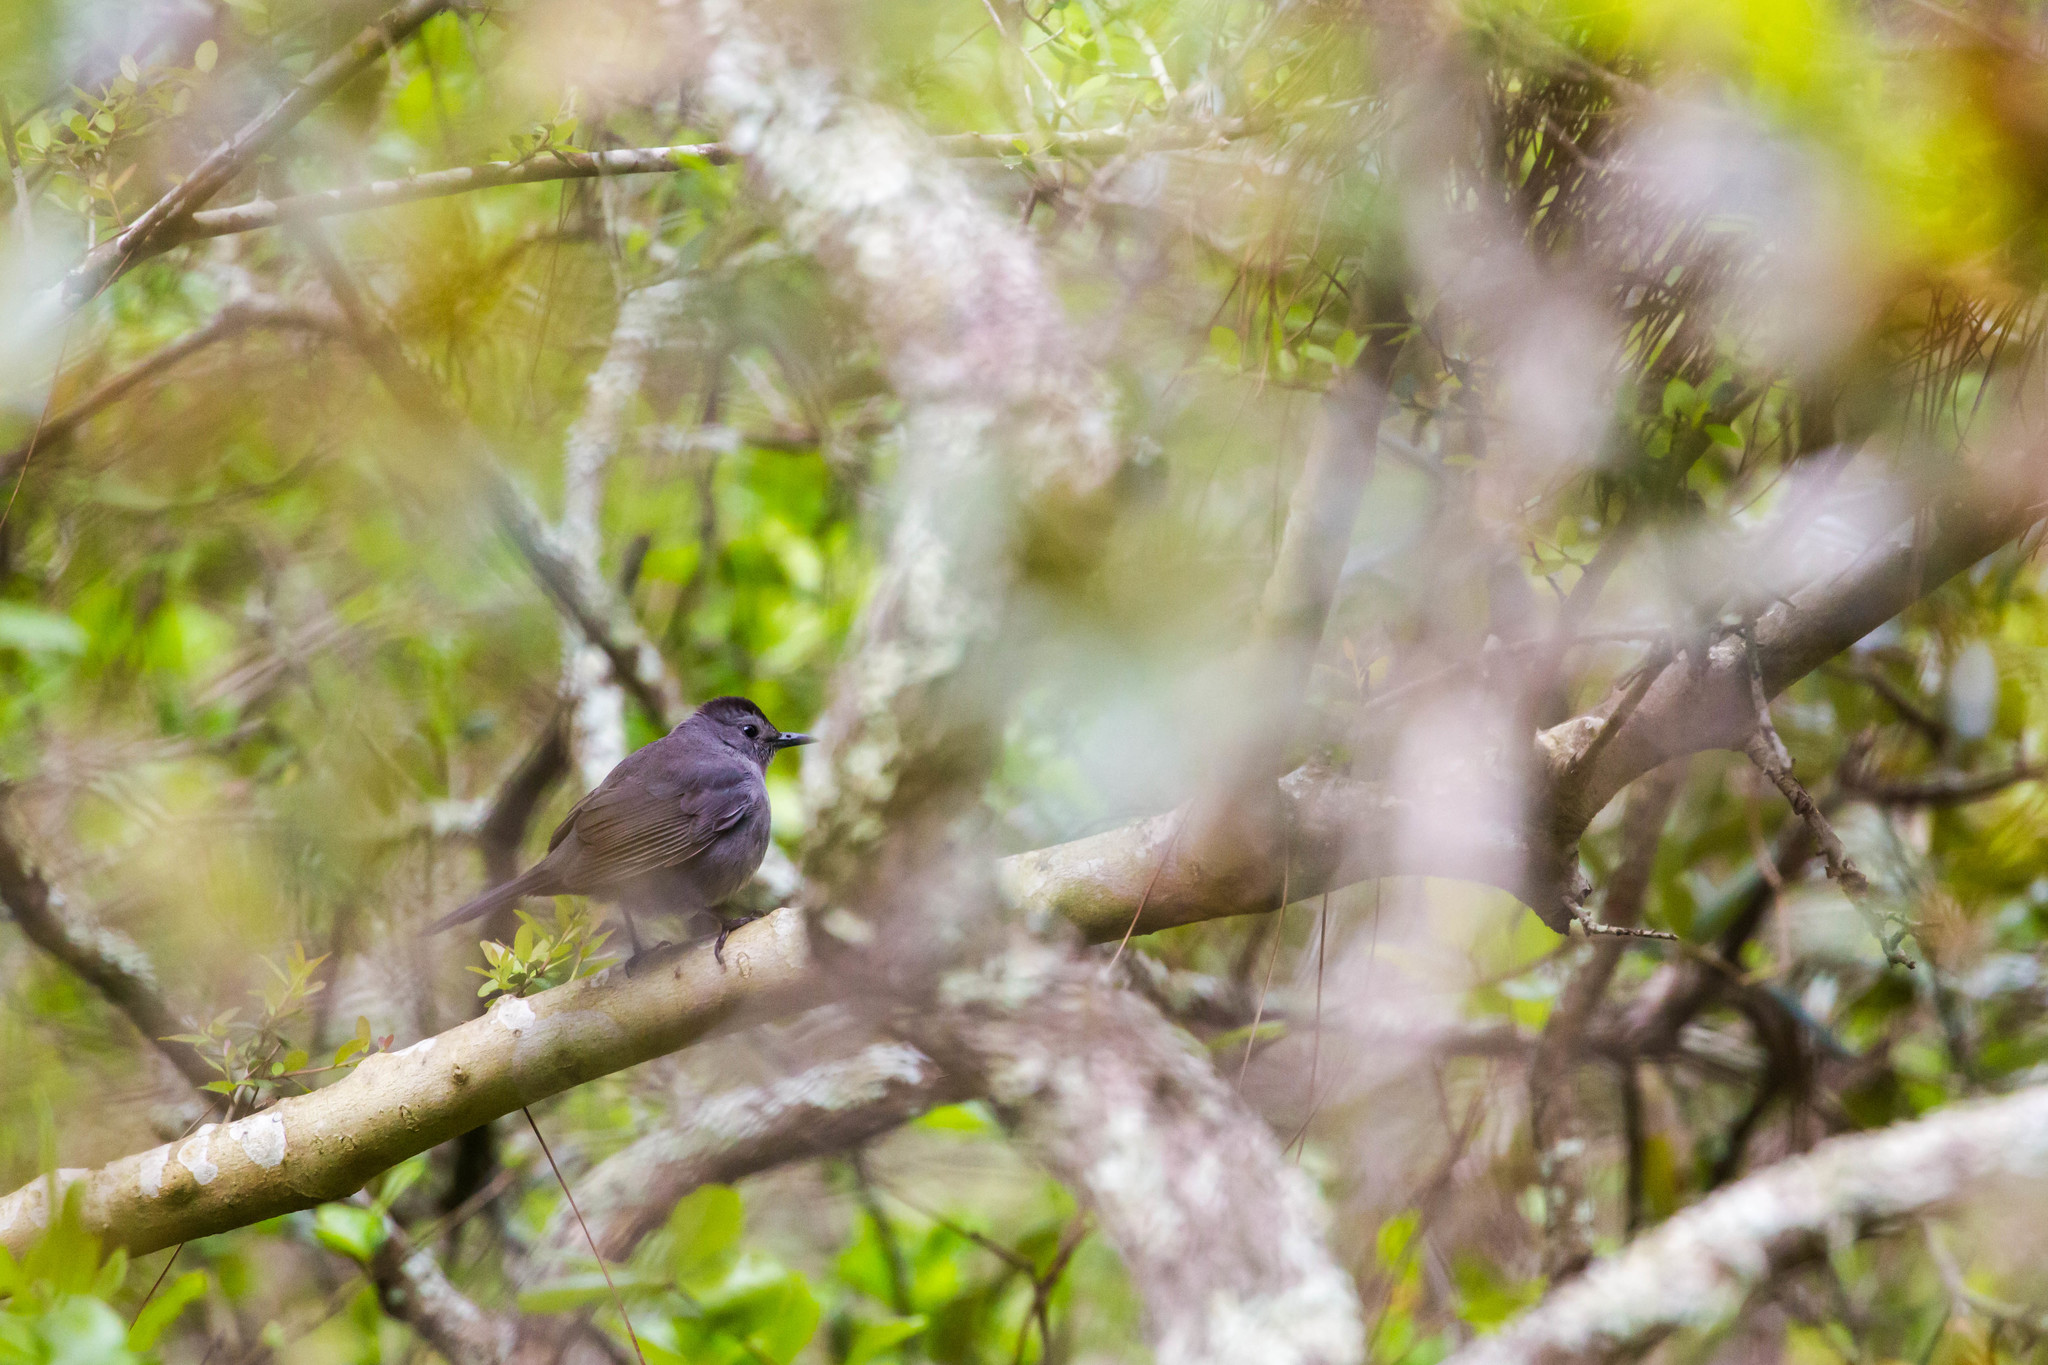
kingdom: Animalia
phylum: Chordata
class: Aves
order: Passeriformes
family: Mimidae
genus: Dumetella
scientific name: Dumetella carolinensis
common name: Gray catbird
